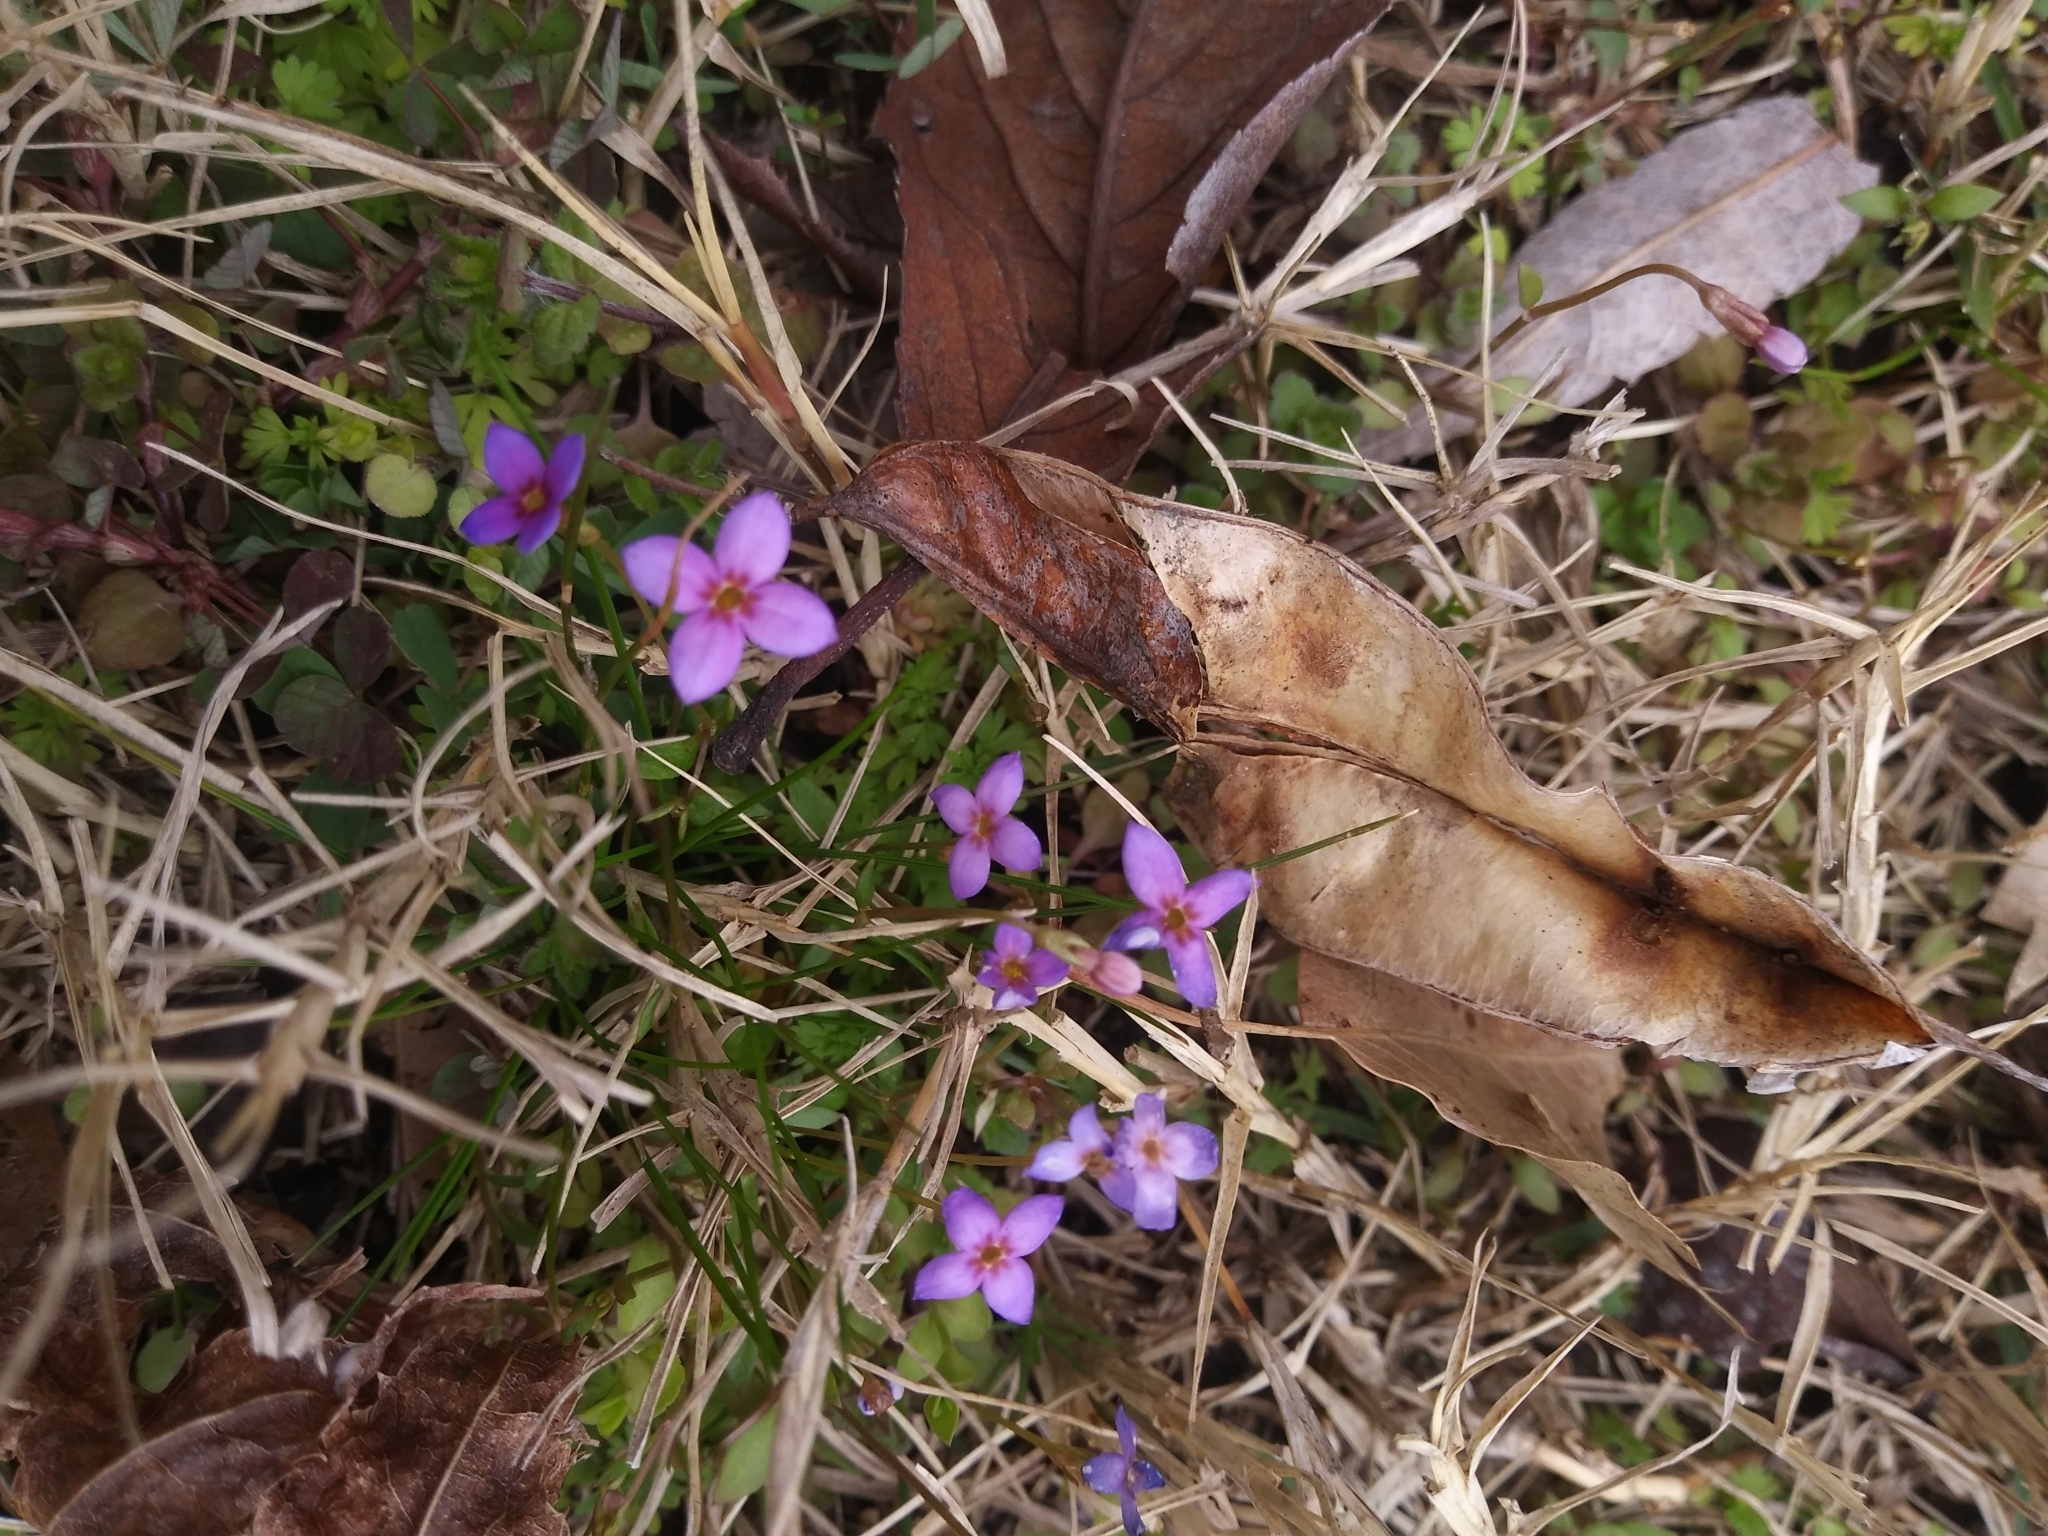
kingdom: Plantae
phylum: Tracheophyta
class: Magnoliopsida
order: Gentianales
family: Rubiaceae
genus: Houstonia
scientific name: Houstonia pusilla
